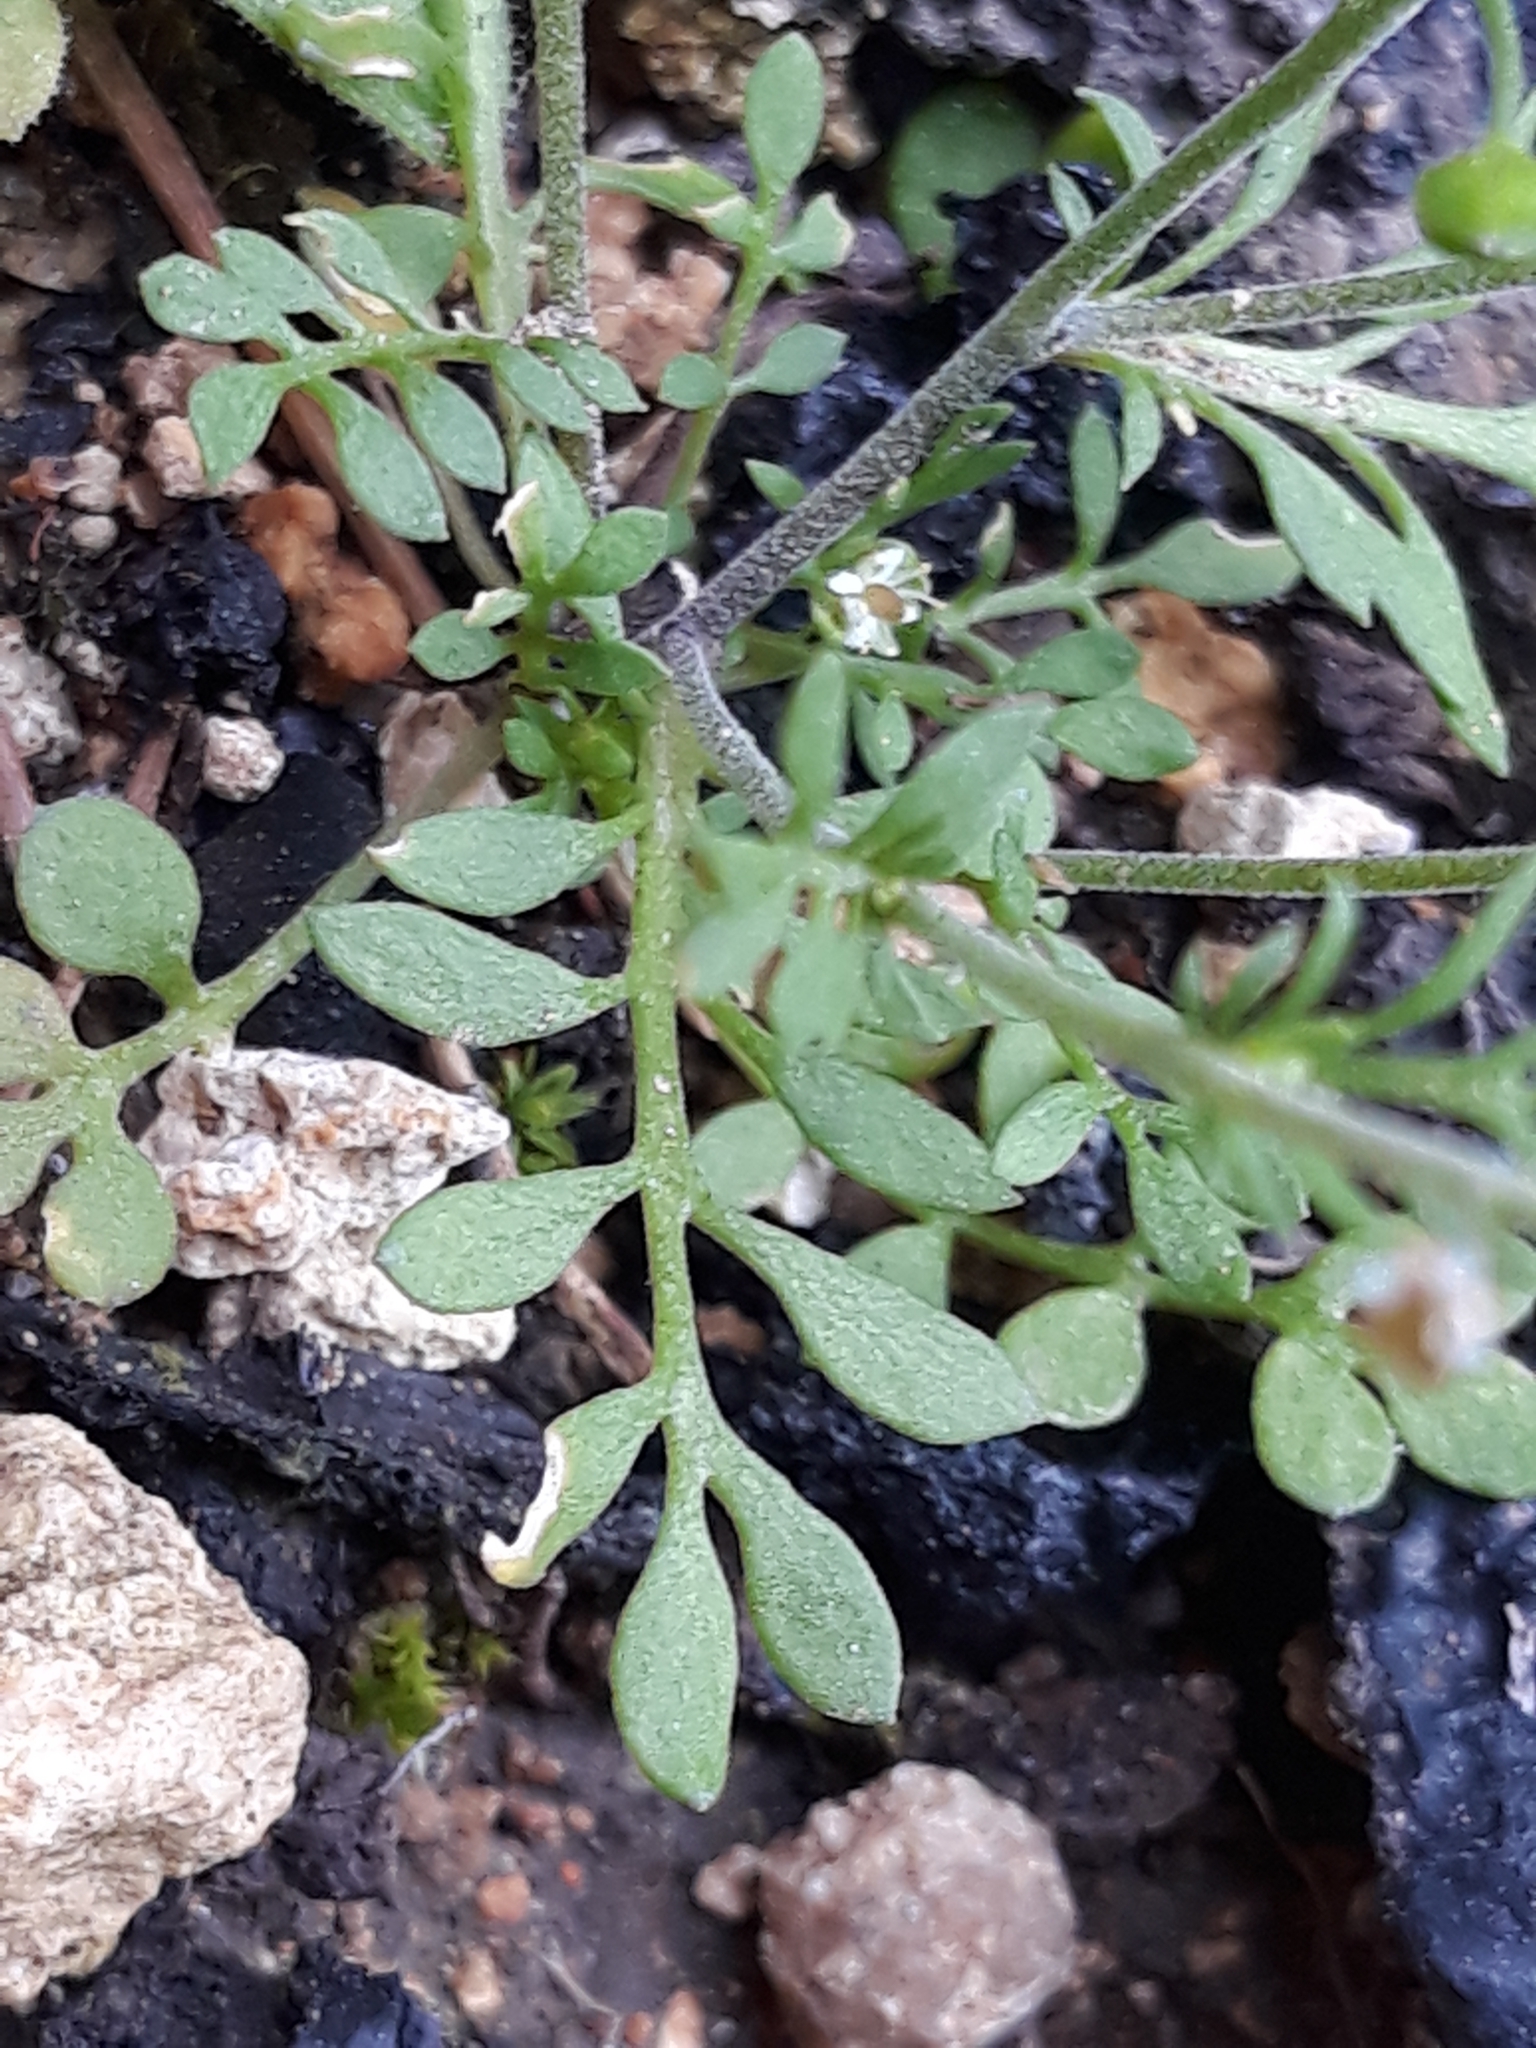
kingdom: Plantae
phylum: Tracheophyta
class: Magnoliopsida
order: Brassicales
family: Brassicaceae
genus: Hornungia
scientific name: Hornungia petraea
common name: Hutchinsia
